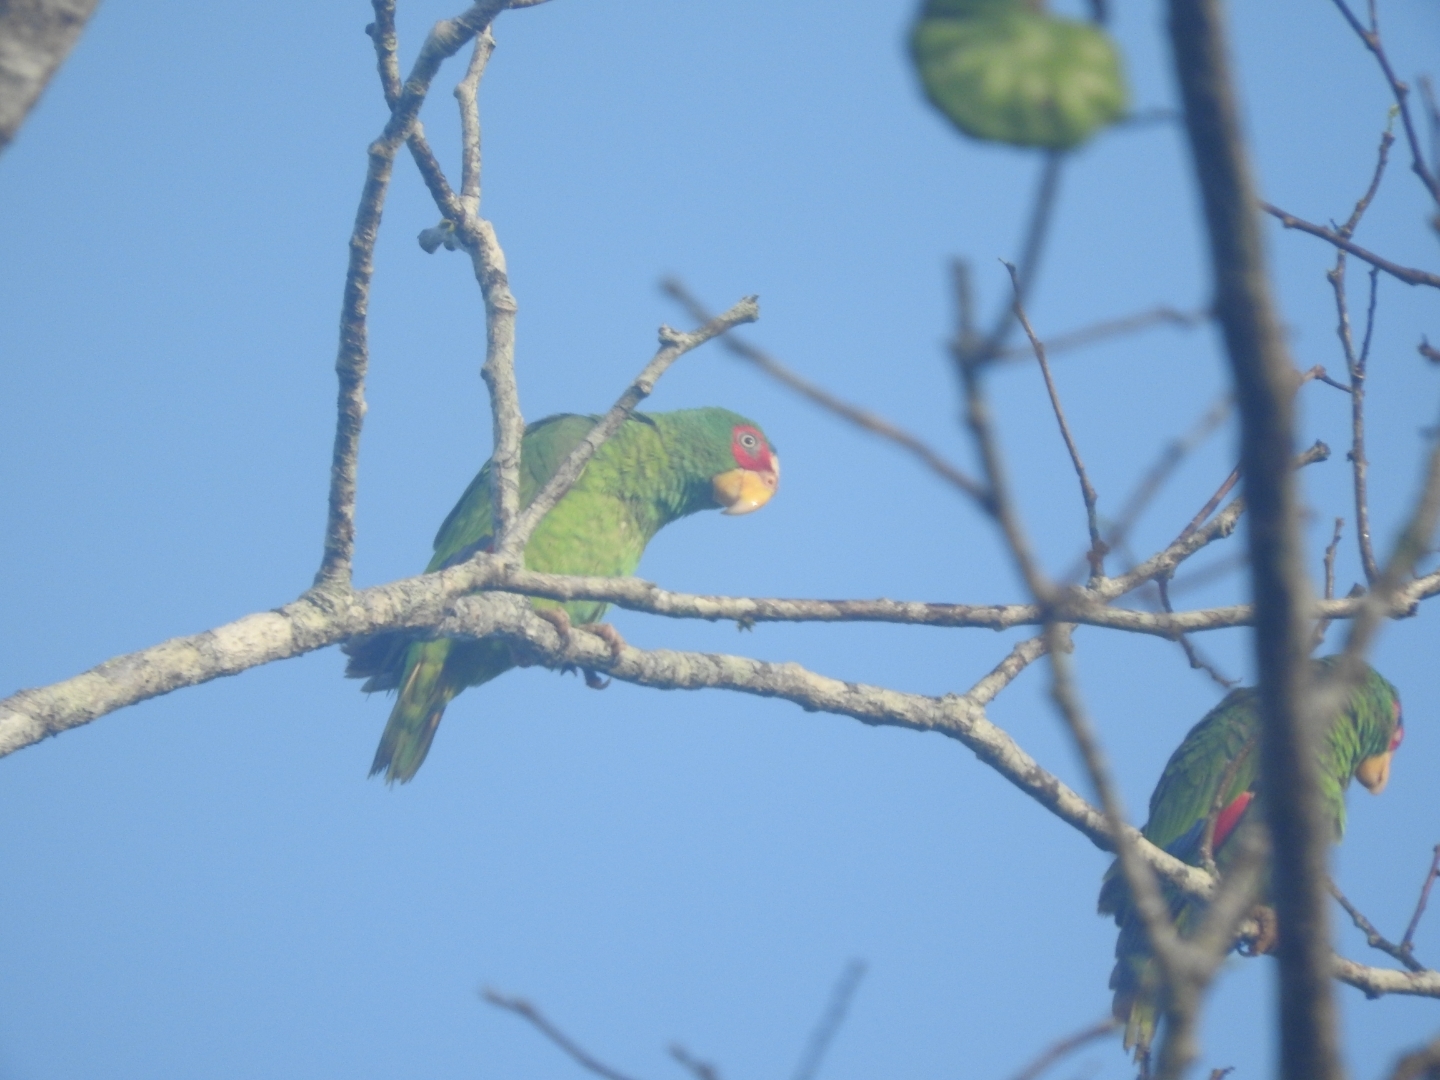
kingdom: Animalia
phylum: Chordata
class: Aves
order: Psittaciformes
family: Psittacidae
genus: Amazona
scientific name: Amazona albifrons
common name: White-fronted amazon
